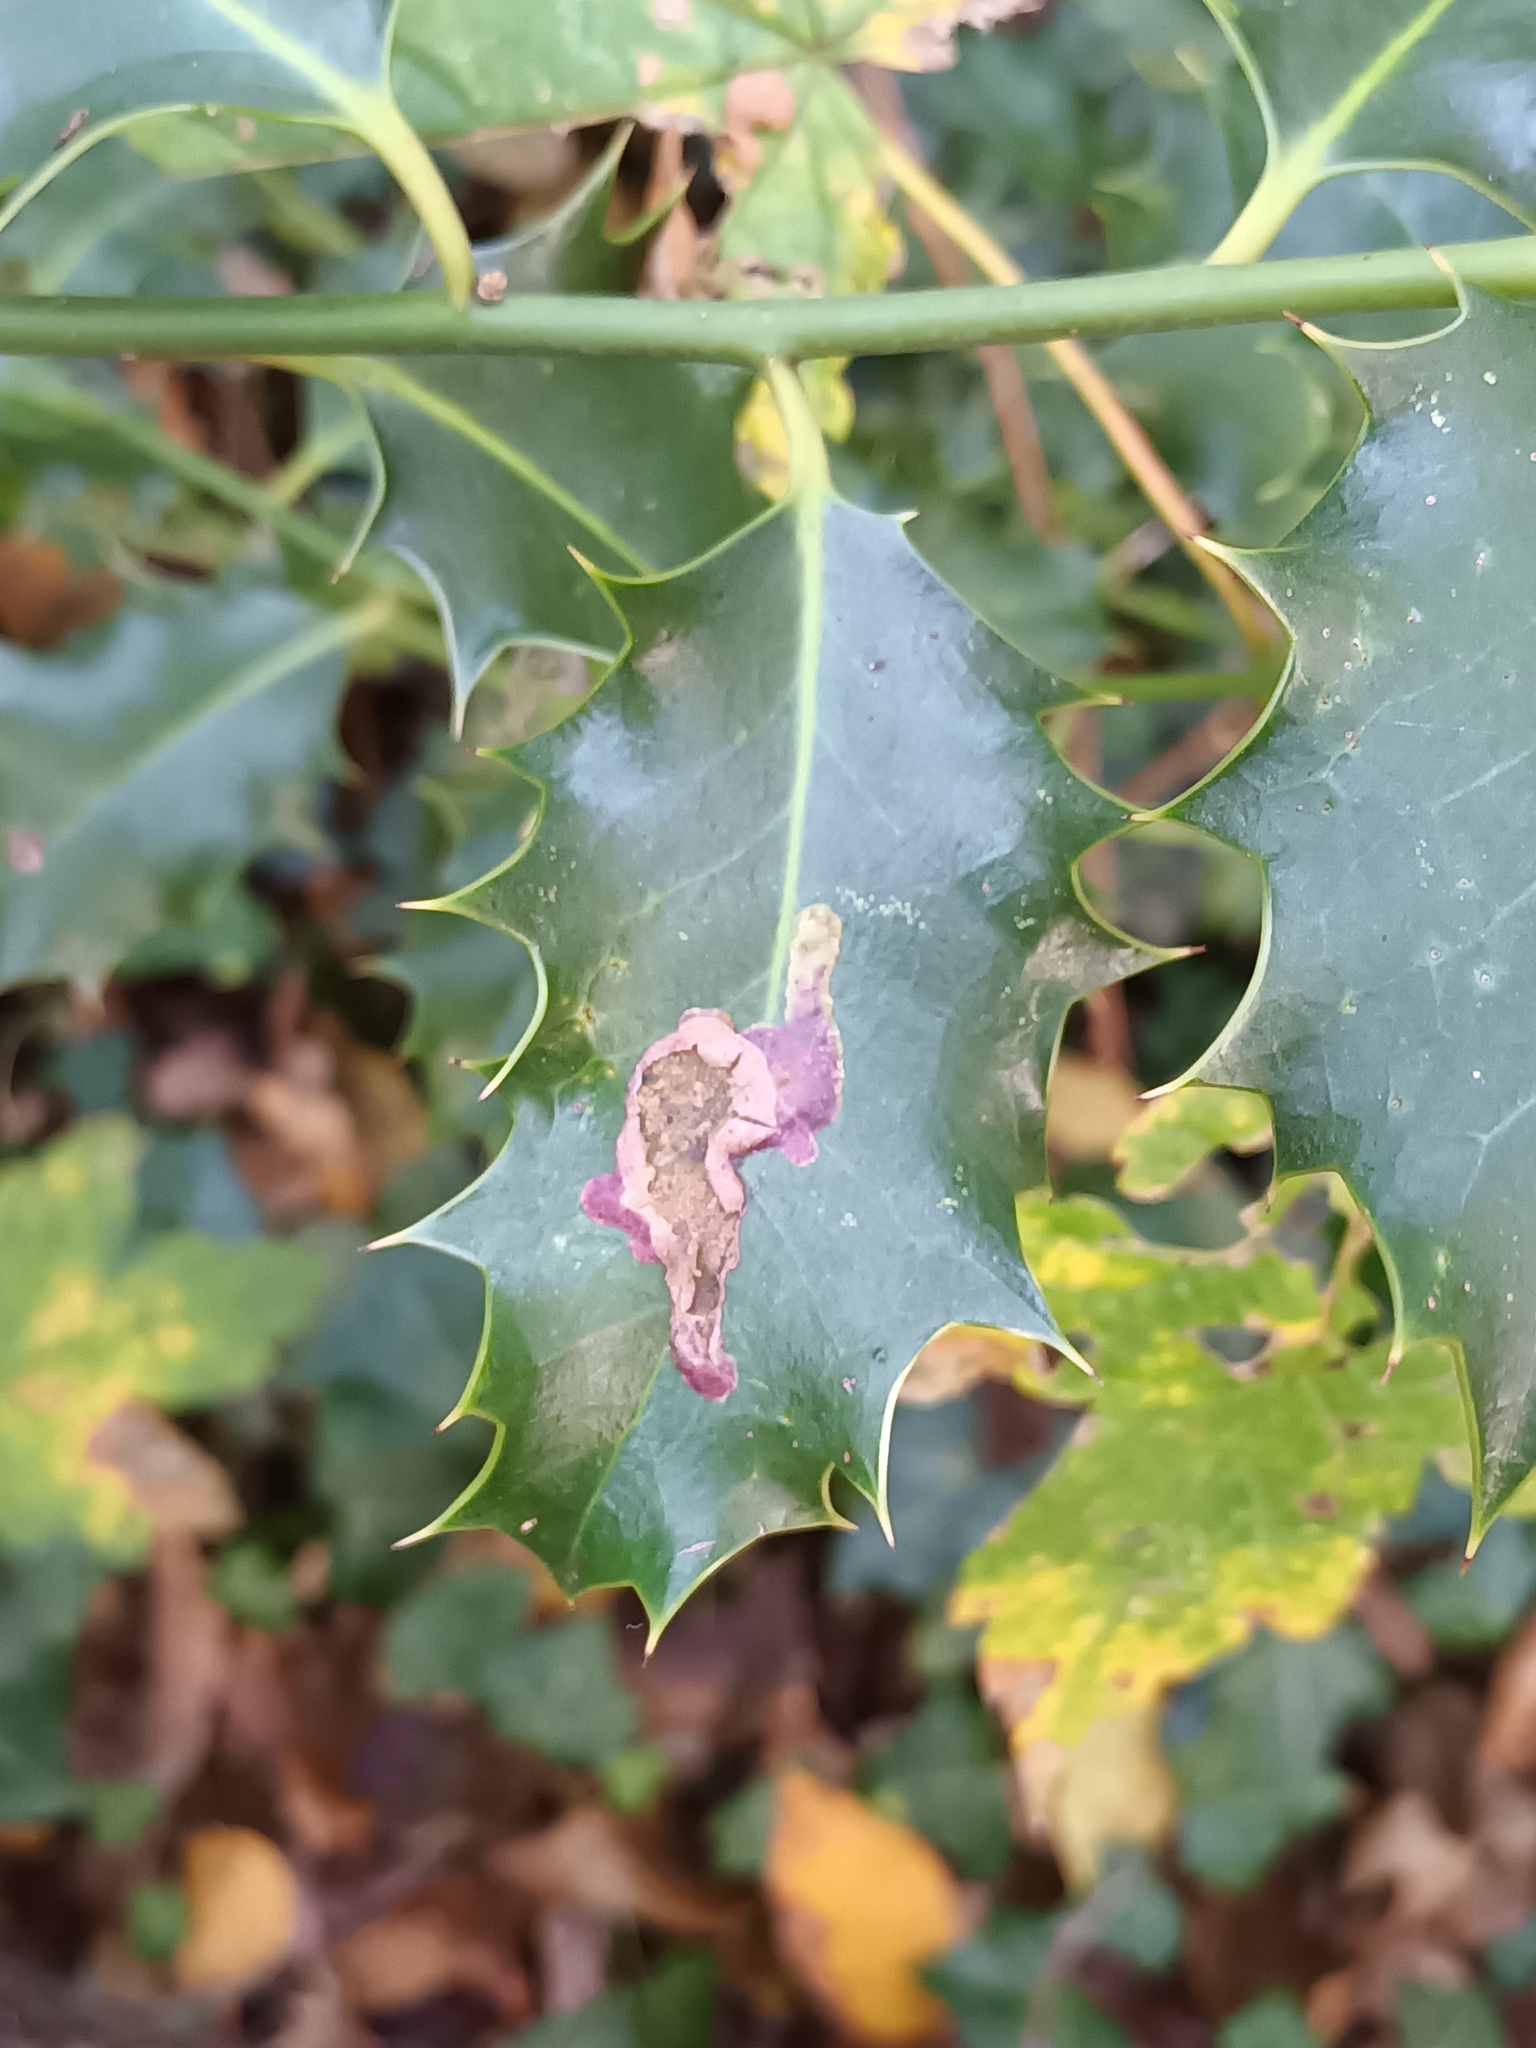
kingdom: Animalia
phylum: Arthropoda
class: Insecta
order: Diptera
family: Agromyzidae
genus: Phytomyza
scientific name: Phytomyza ilicis
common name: Holly leafminer
